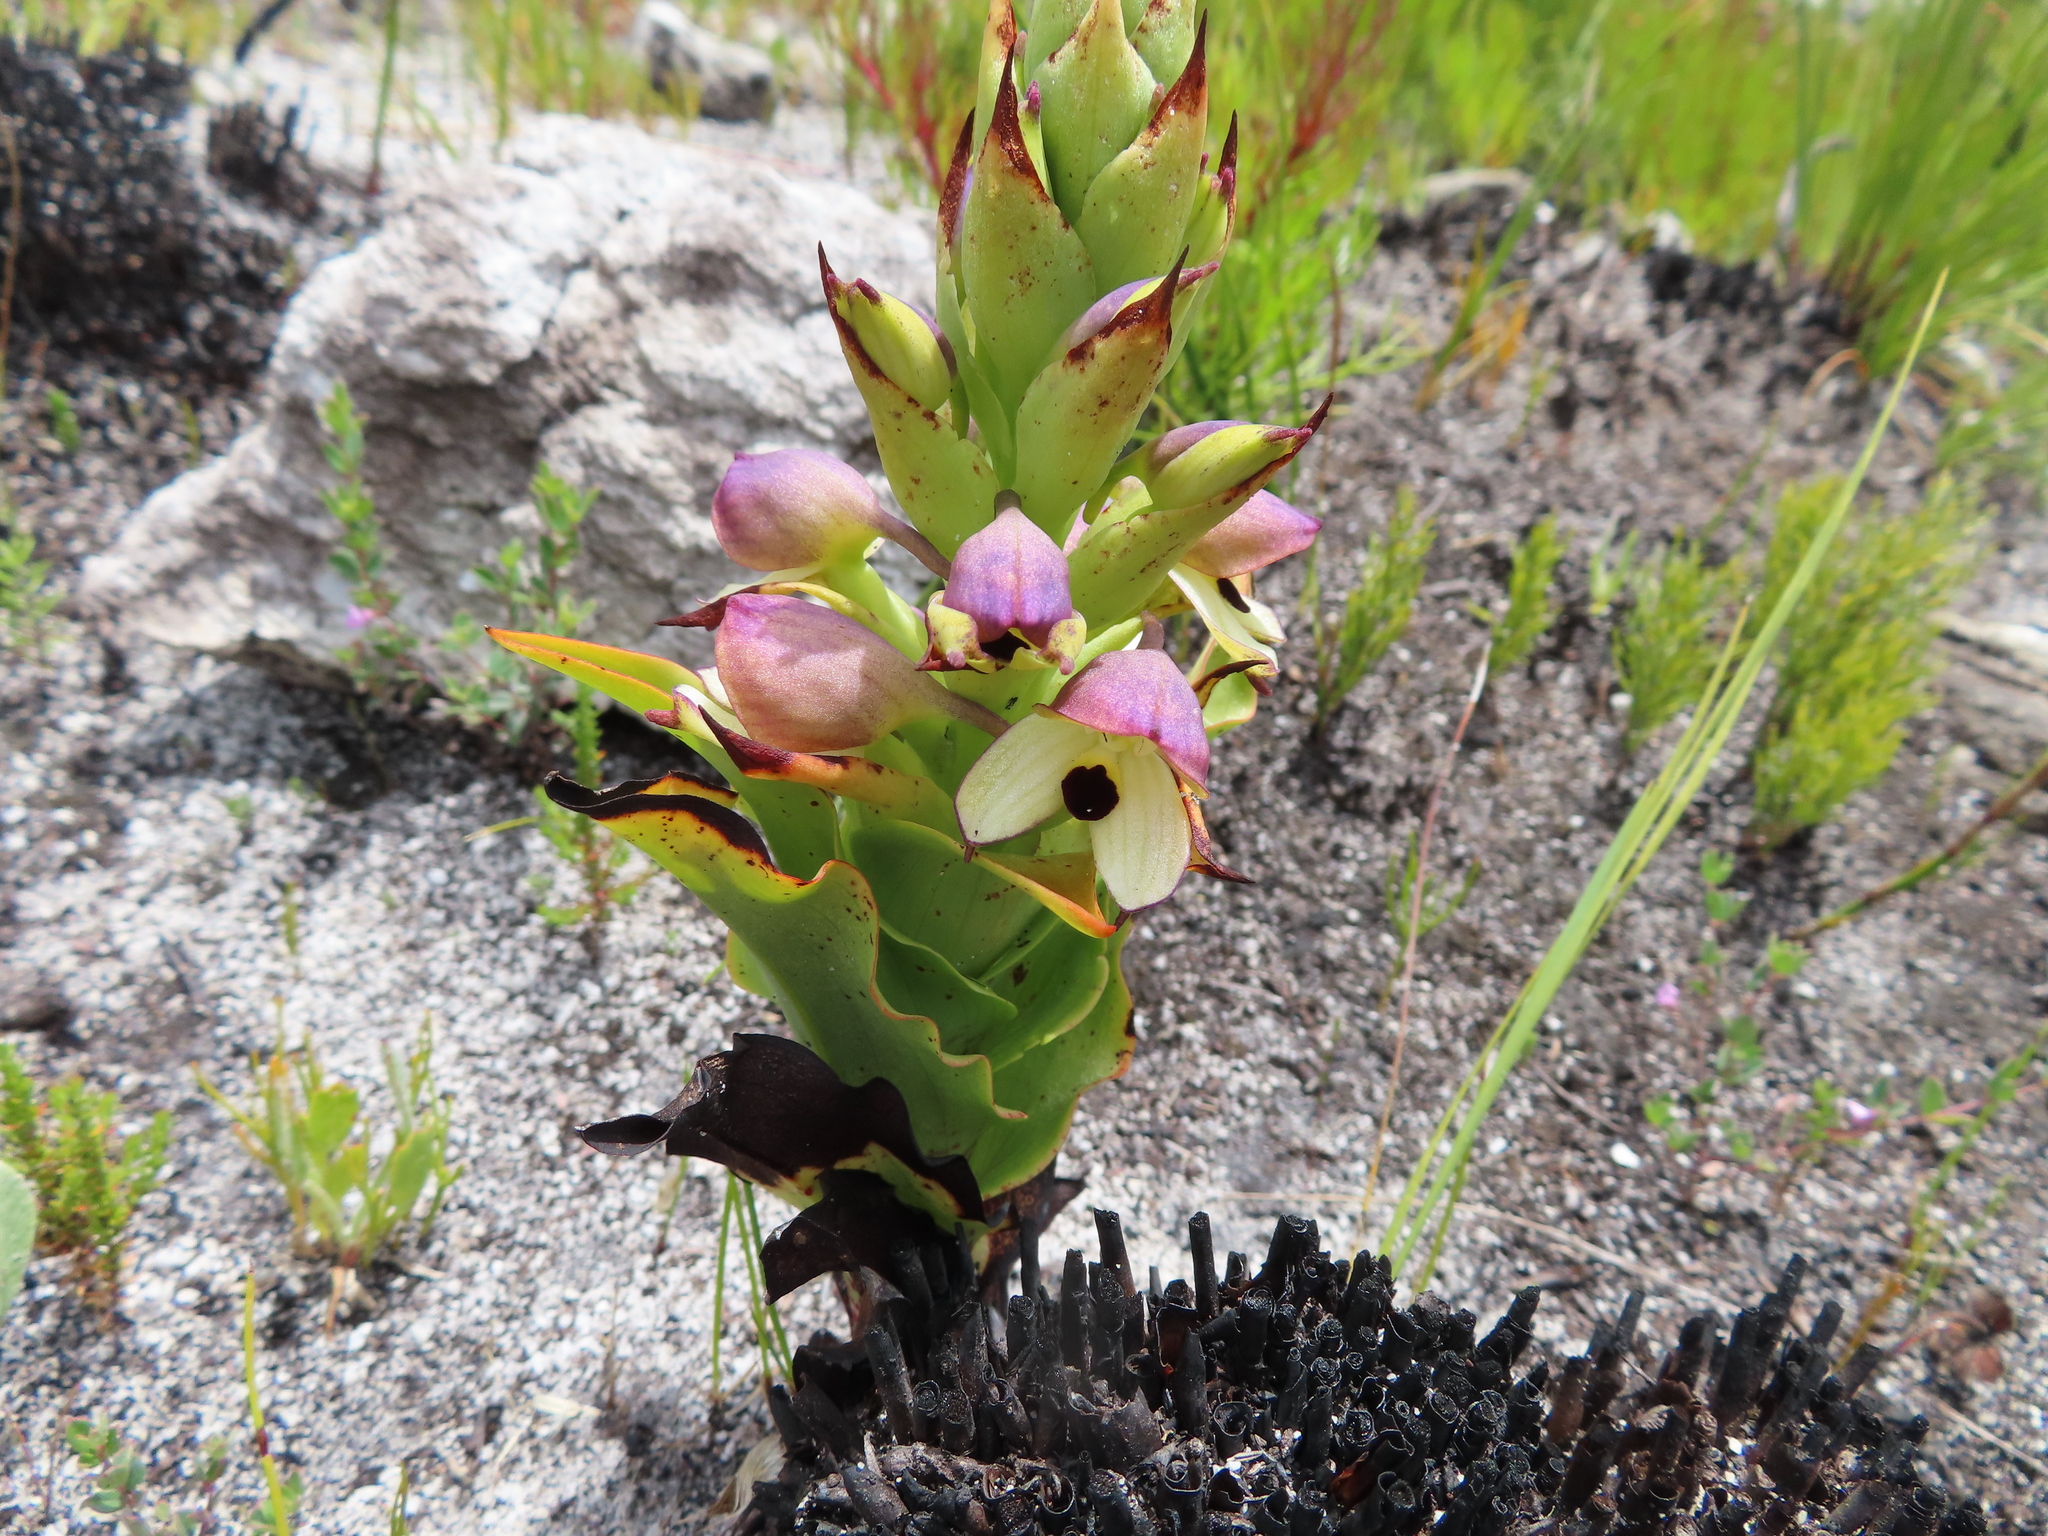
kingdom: Plantae
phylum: Tracheophyta
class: Liliopsida
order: Asparagales
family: Orchidaceae
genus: Disa
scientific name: Disa cornuta
